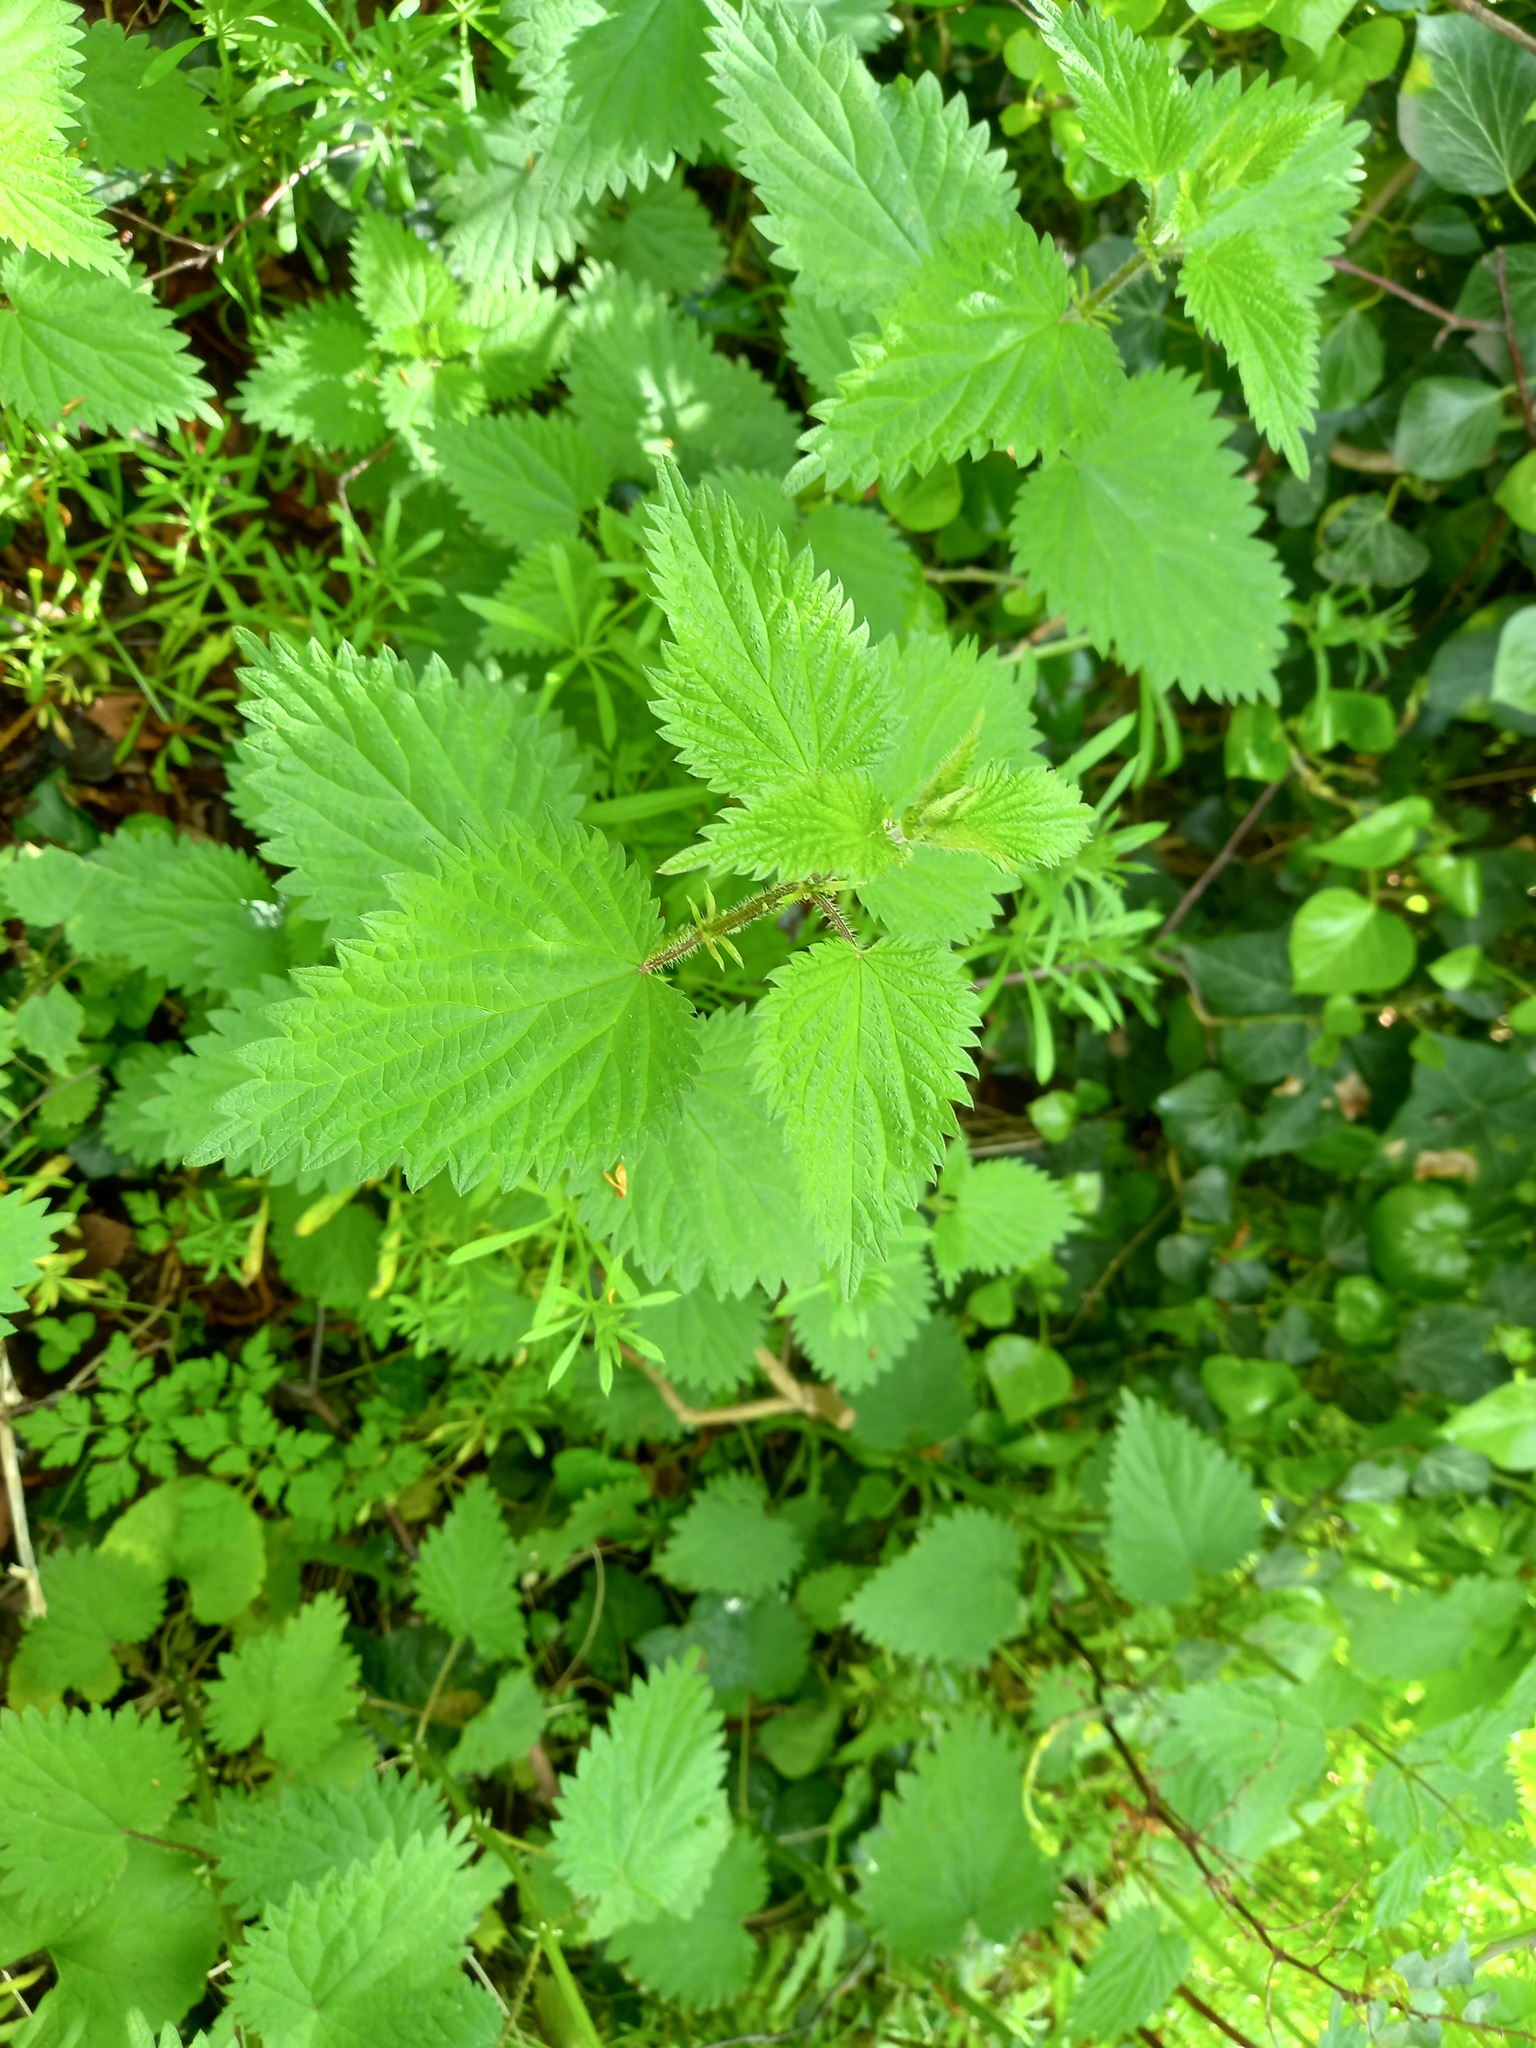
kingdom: Plantae
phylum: Tracheophyta
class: Magnoliopsida
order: Rosales
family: Urticaceae
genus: Urtica
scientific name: Urtica dioica
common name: Common nettle
